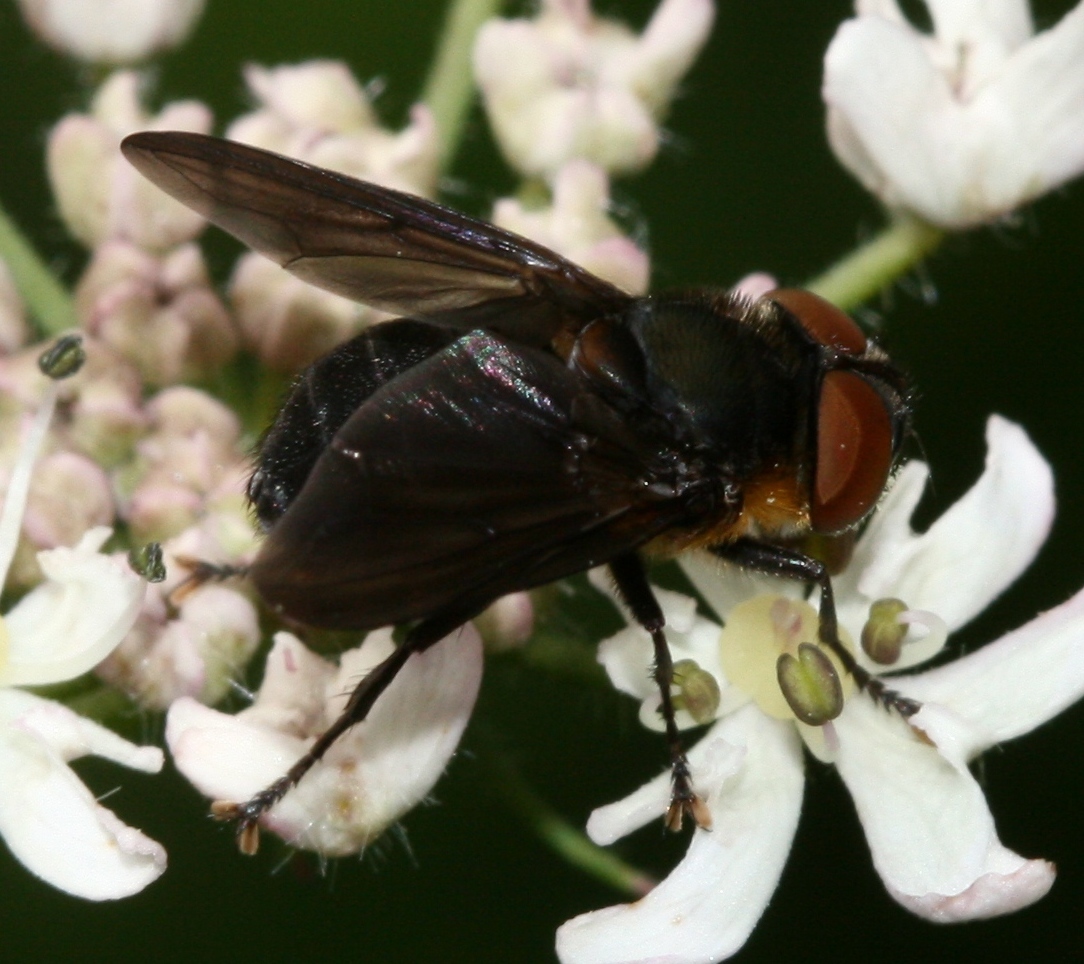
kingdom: Animalia
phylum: Arthropoda
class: Insecta
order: Diptera
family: Tachinidae
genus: Phasia
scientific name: Phasia hemiptera
